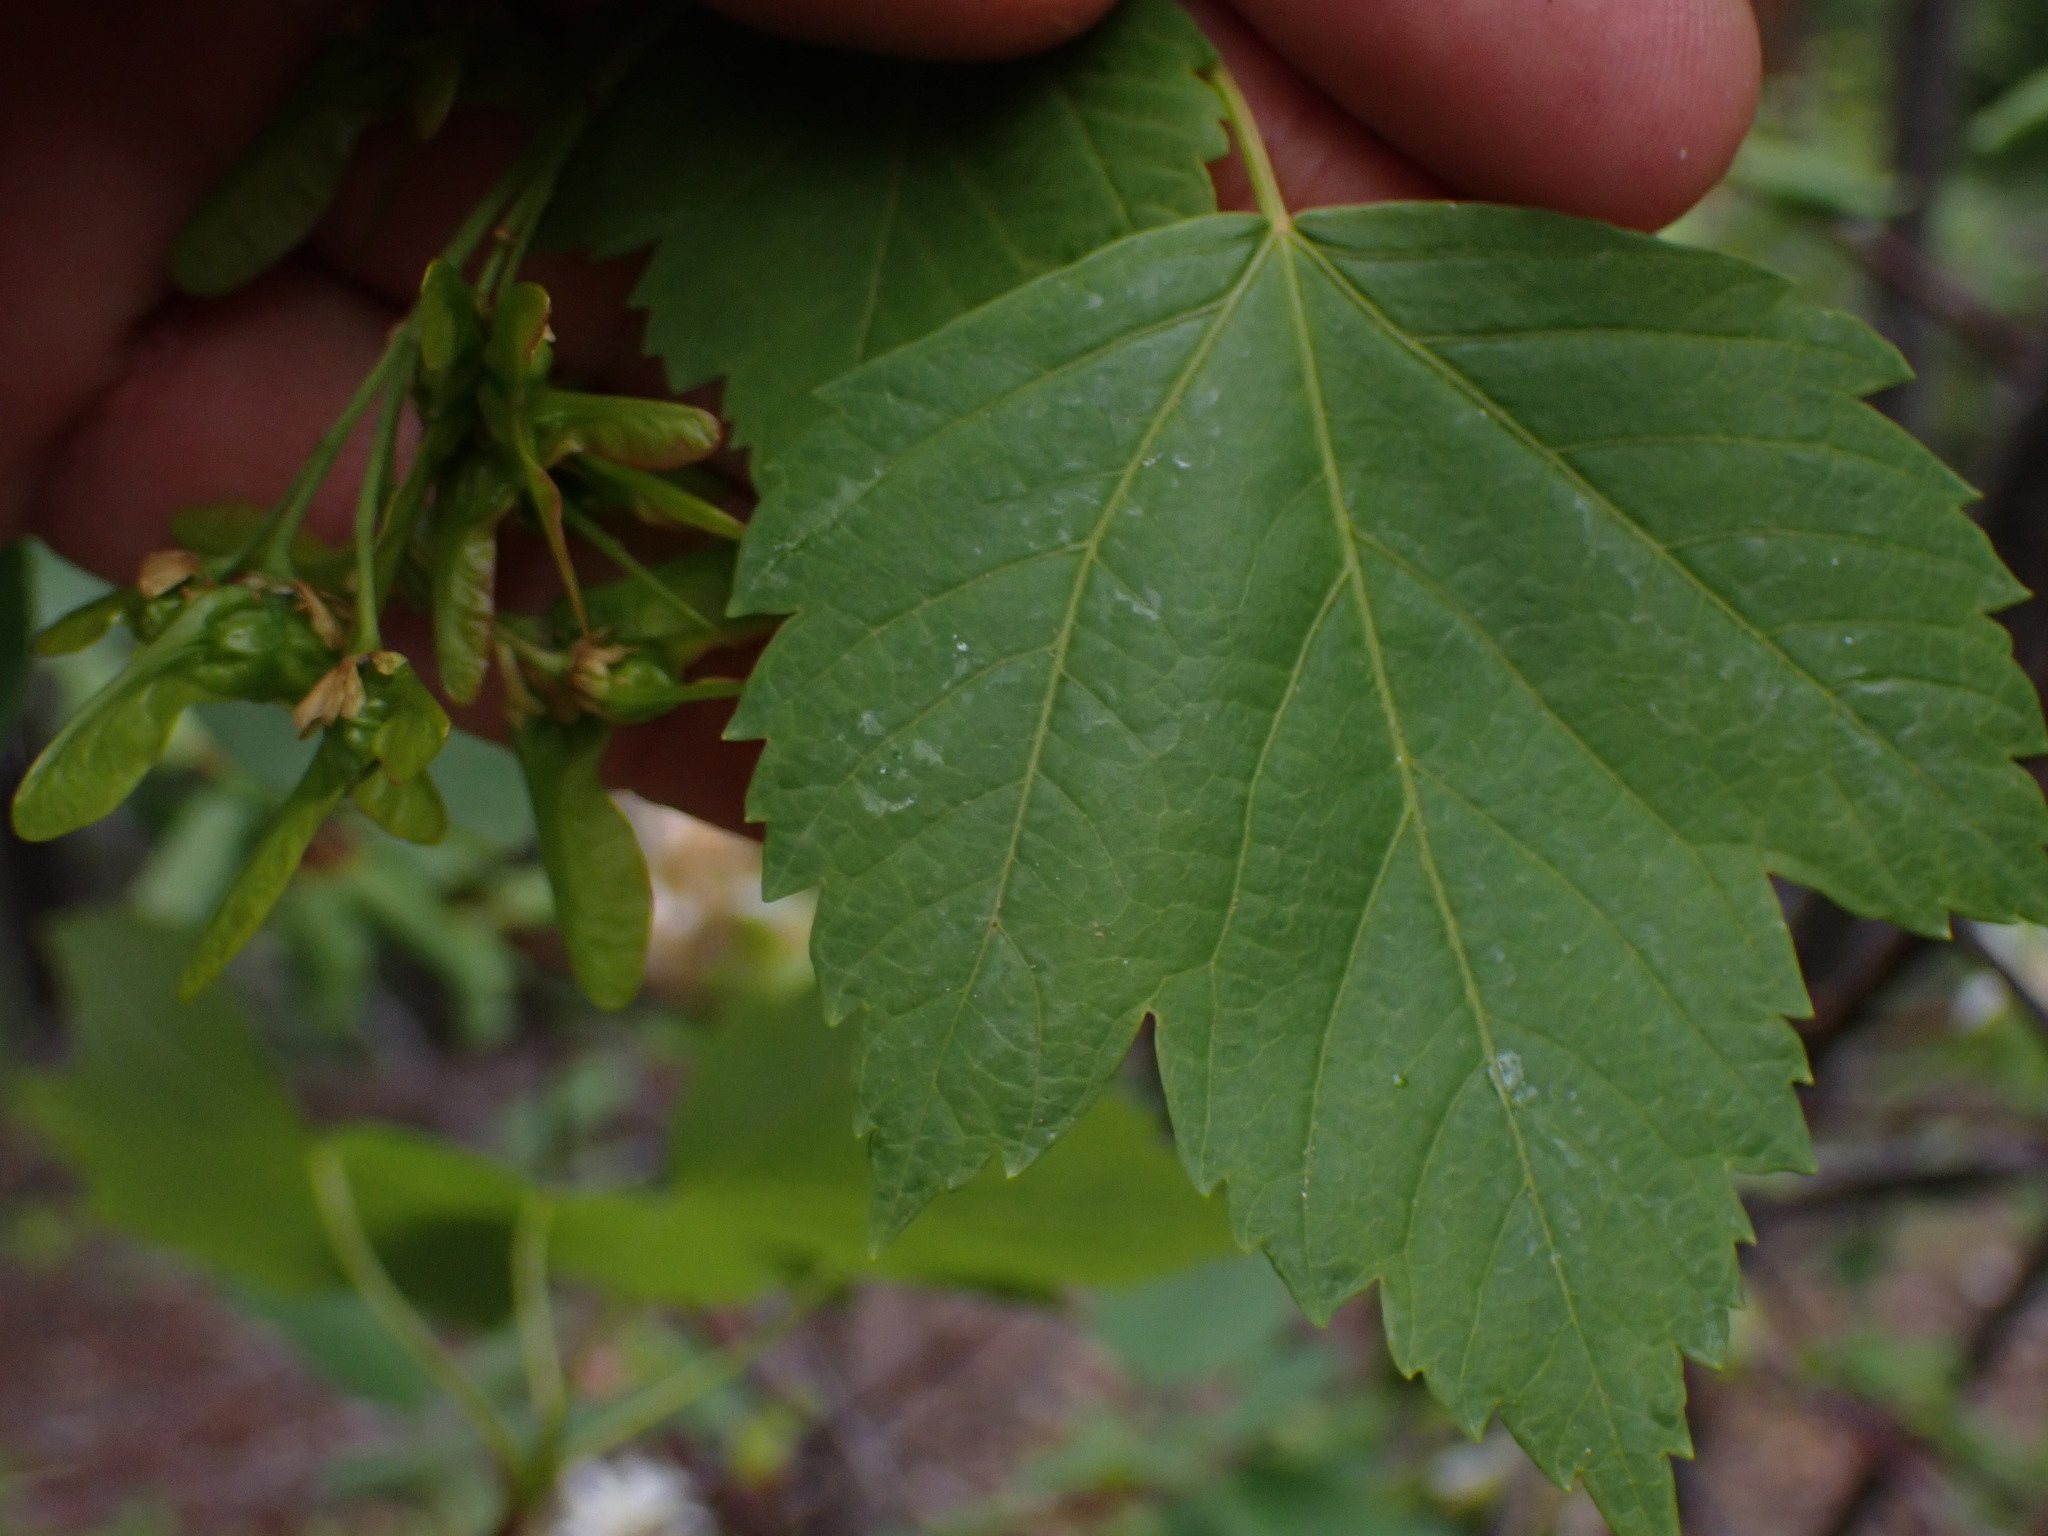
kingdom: Plantae
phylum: Tracheophyta
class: Magnoliopsida
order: Sapindales
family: Sapindaceae
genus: Acer
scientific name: Acer glabrum
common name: Rocky mountain maple
